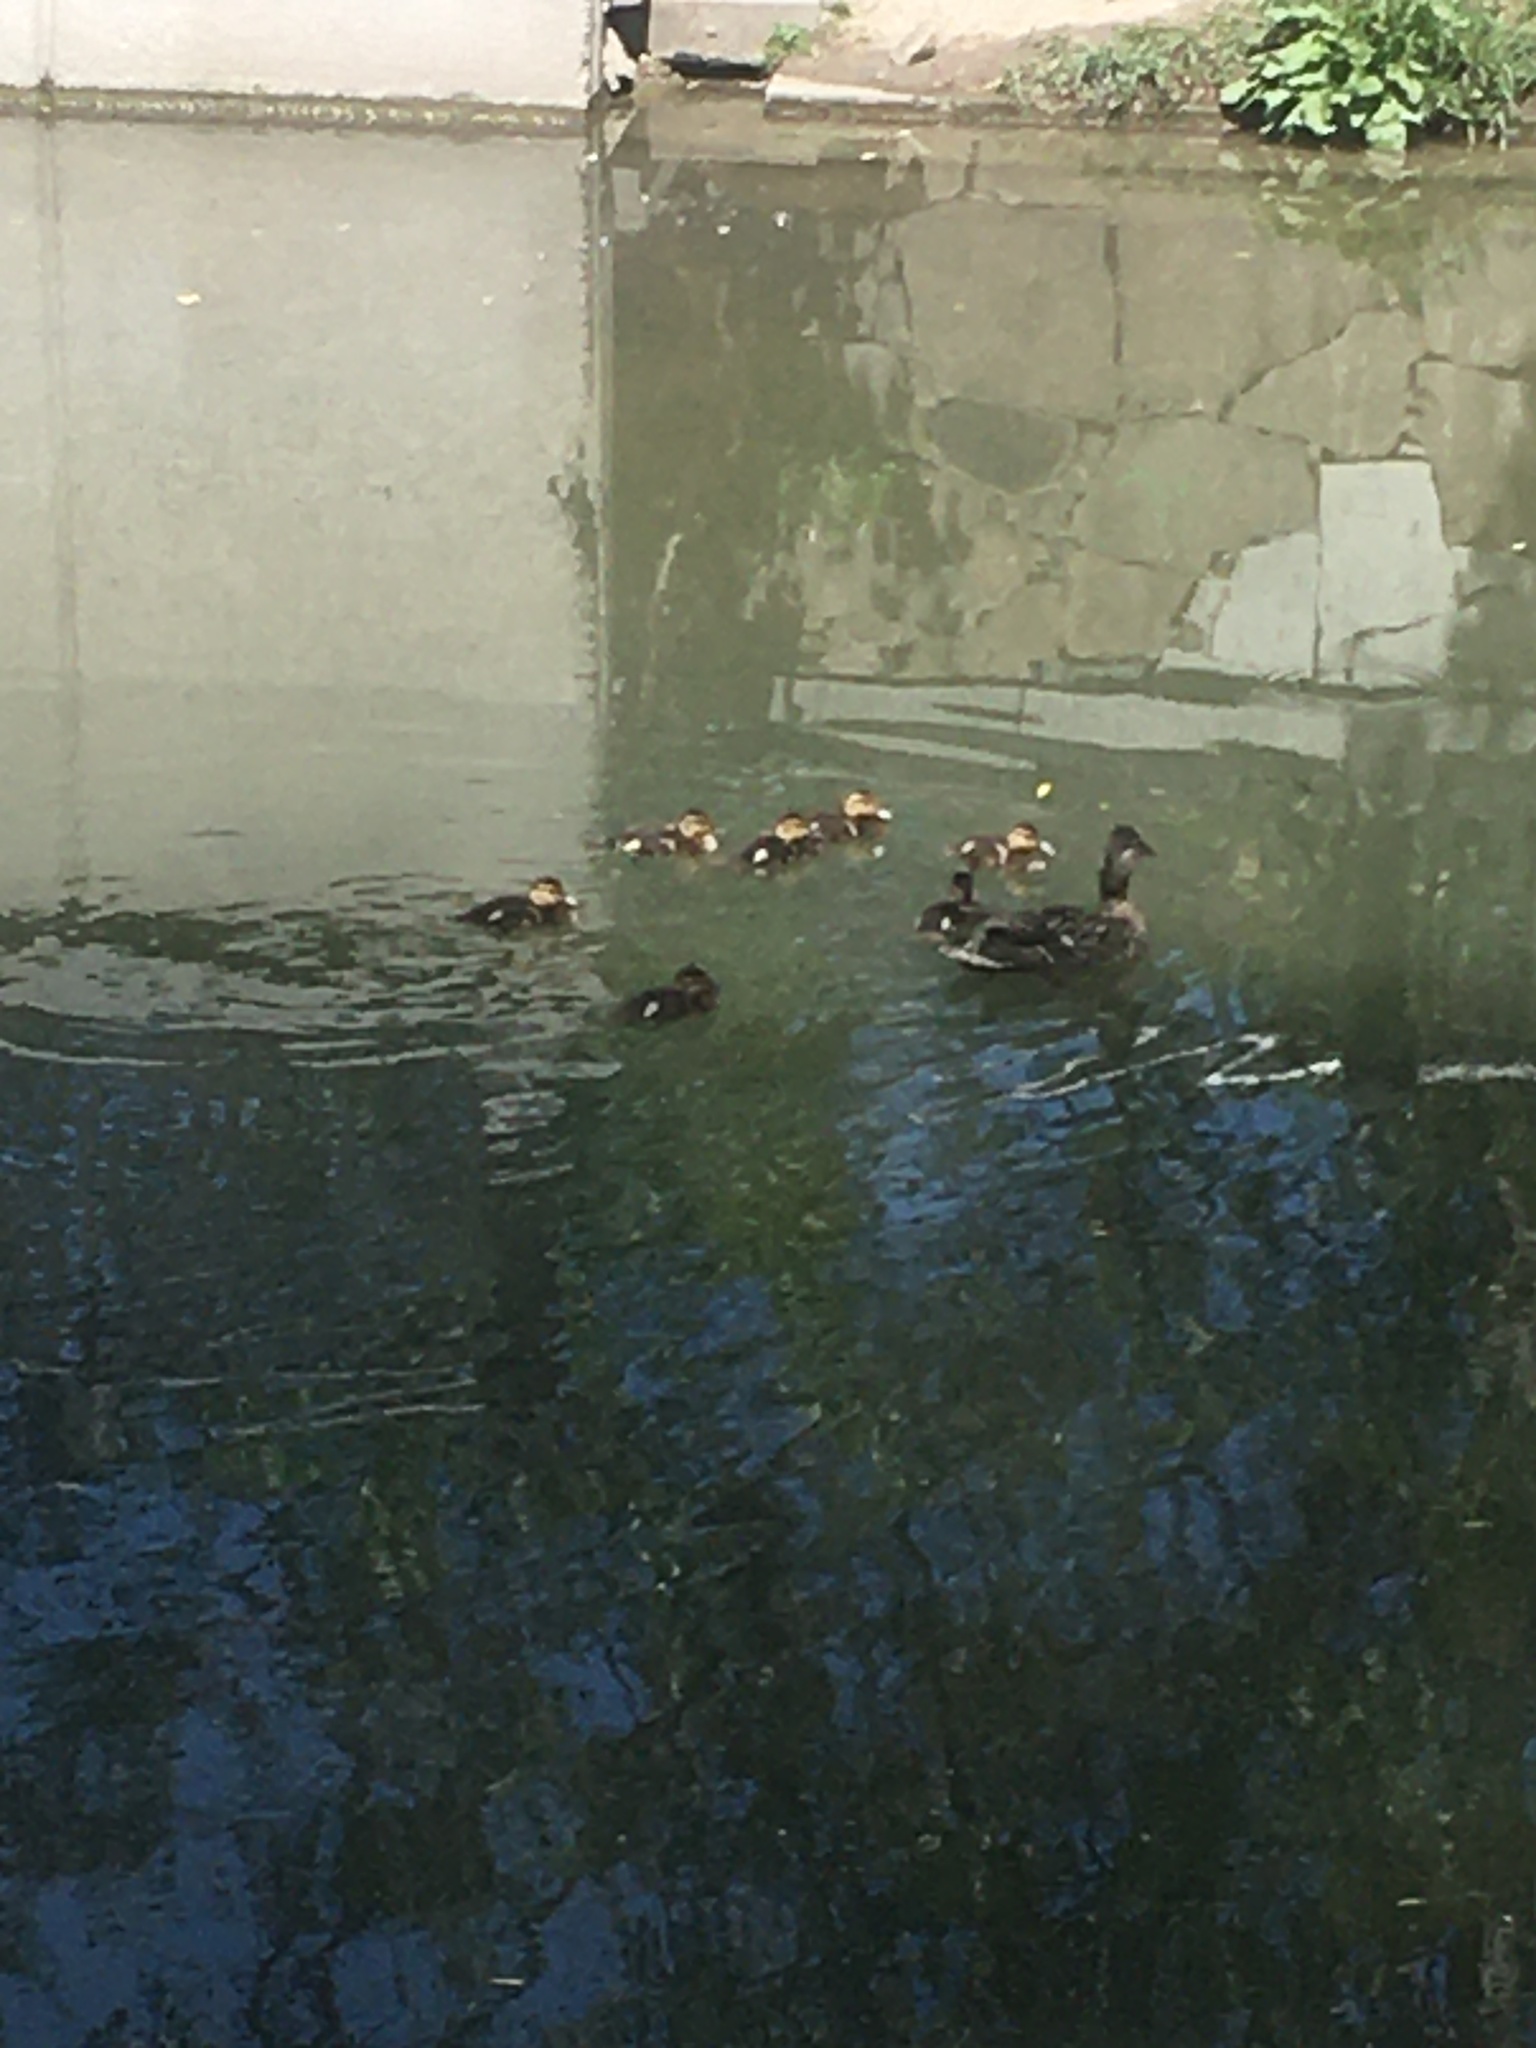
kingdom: Animalia
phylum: Chordata
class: Aves
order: Anseriformes
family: Anatidae
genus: Anas
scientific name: Anas platyrhynchos
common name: Mallard
